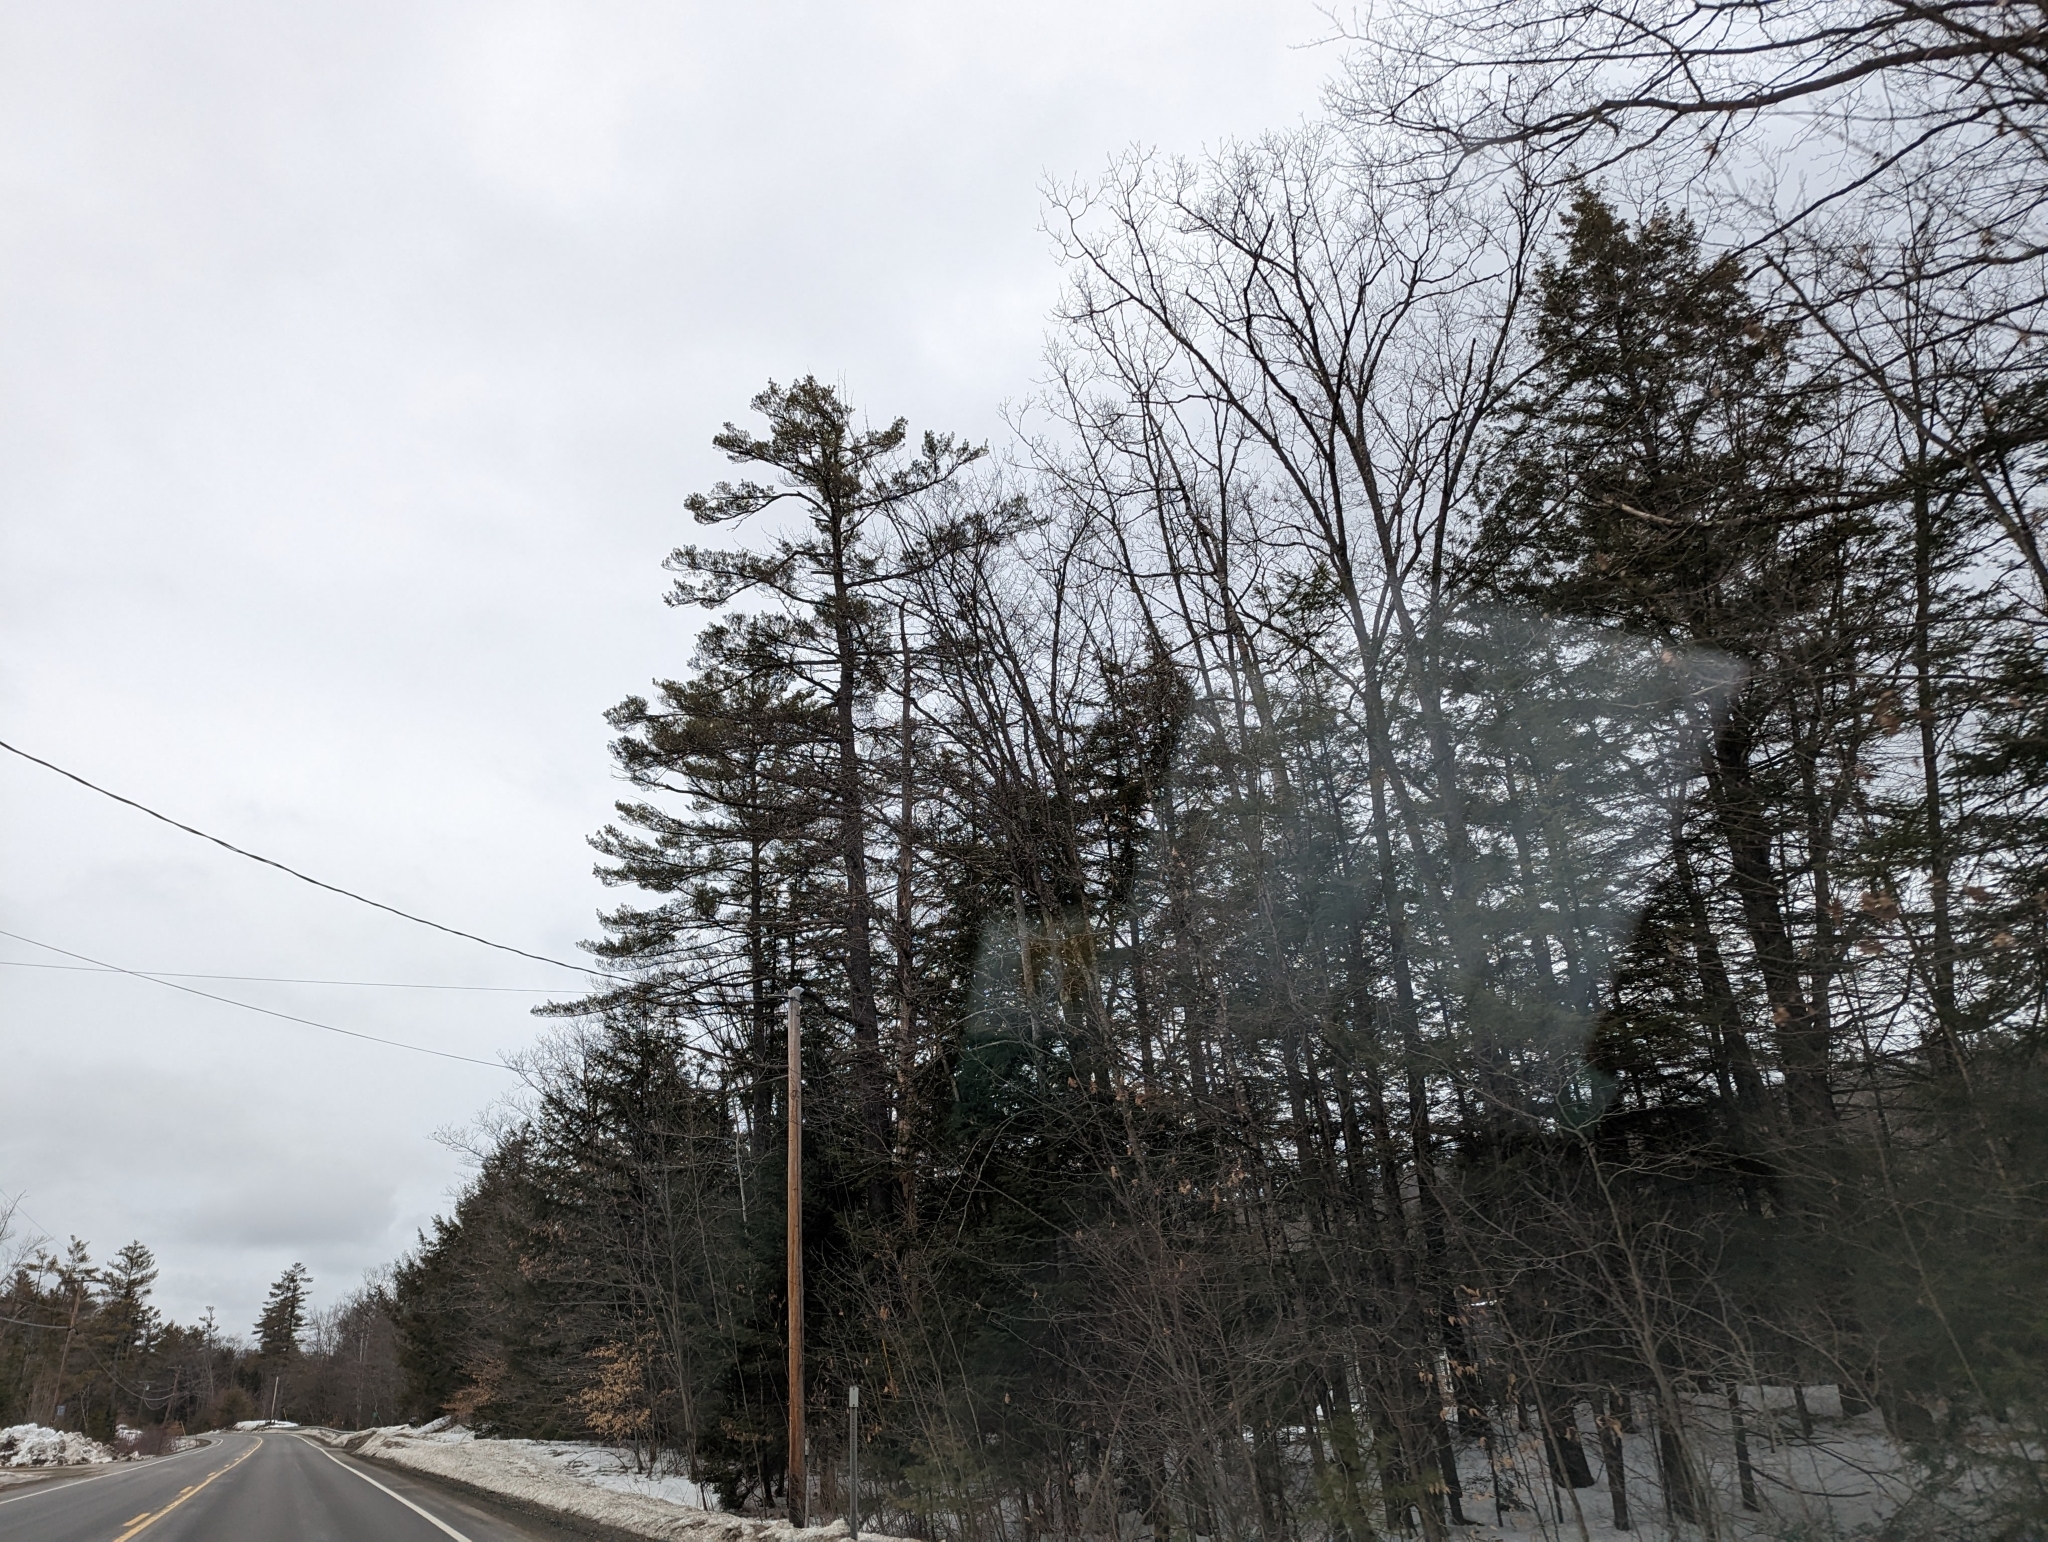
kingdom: Plantae
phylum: Tracheophyta
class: Pinopsida
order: Pinales
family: Pinaceae
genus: Pinus
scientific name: Pinus strobus
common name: Weymouth pine
